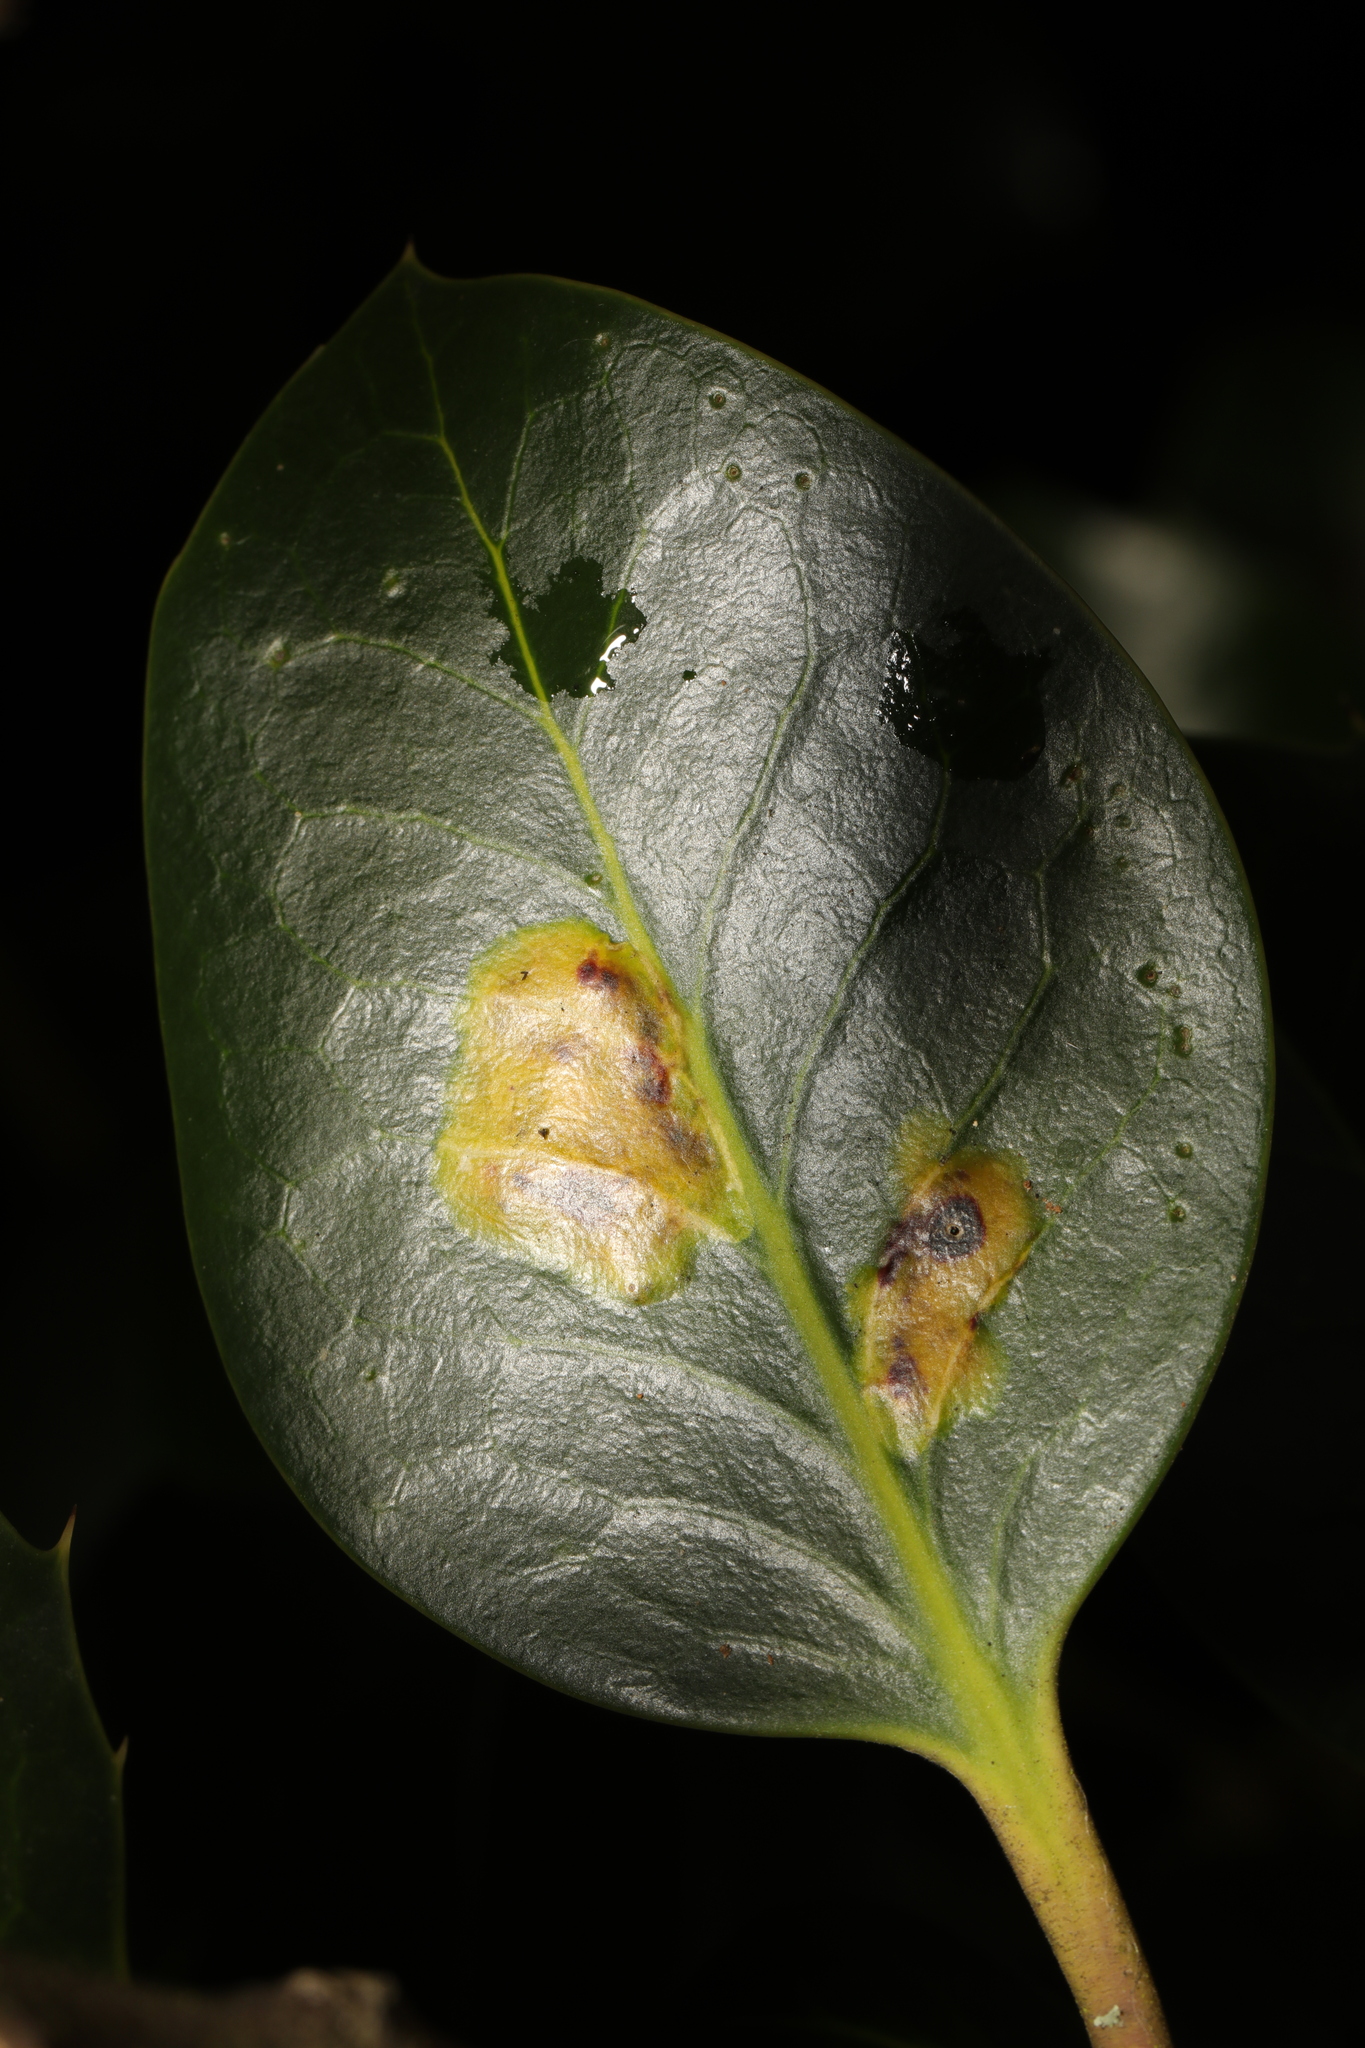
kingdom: Animalia
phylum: Arthropoda
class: Insecta
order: Diptera
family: Agromyzidae
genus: Phytomyza
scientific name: Phytomyza ilicis
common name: Holly leafminer
